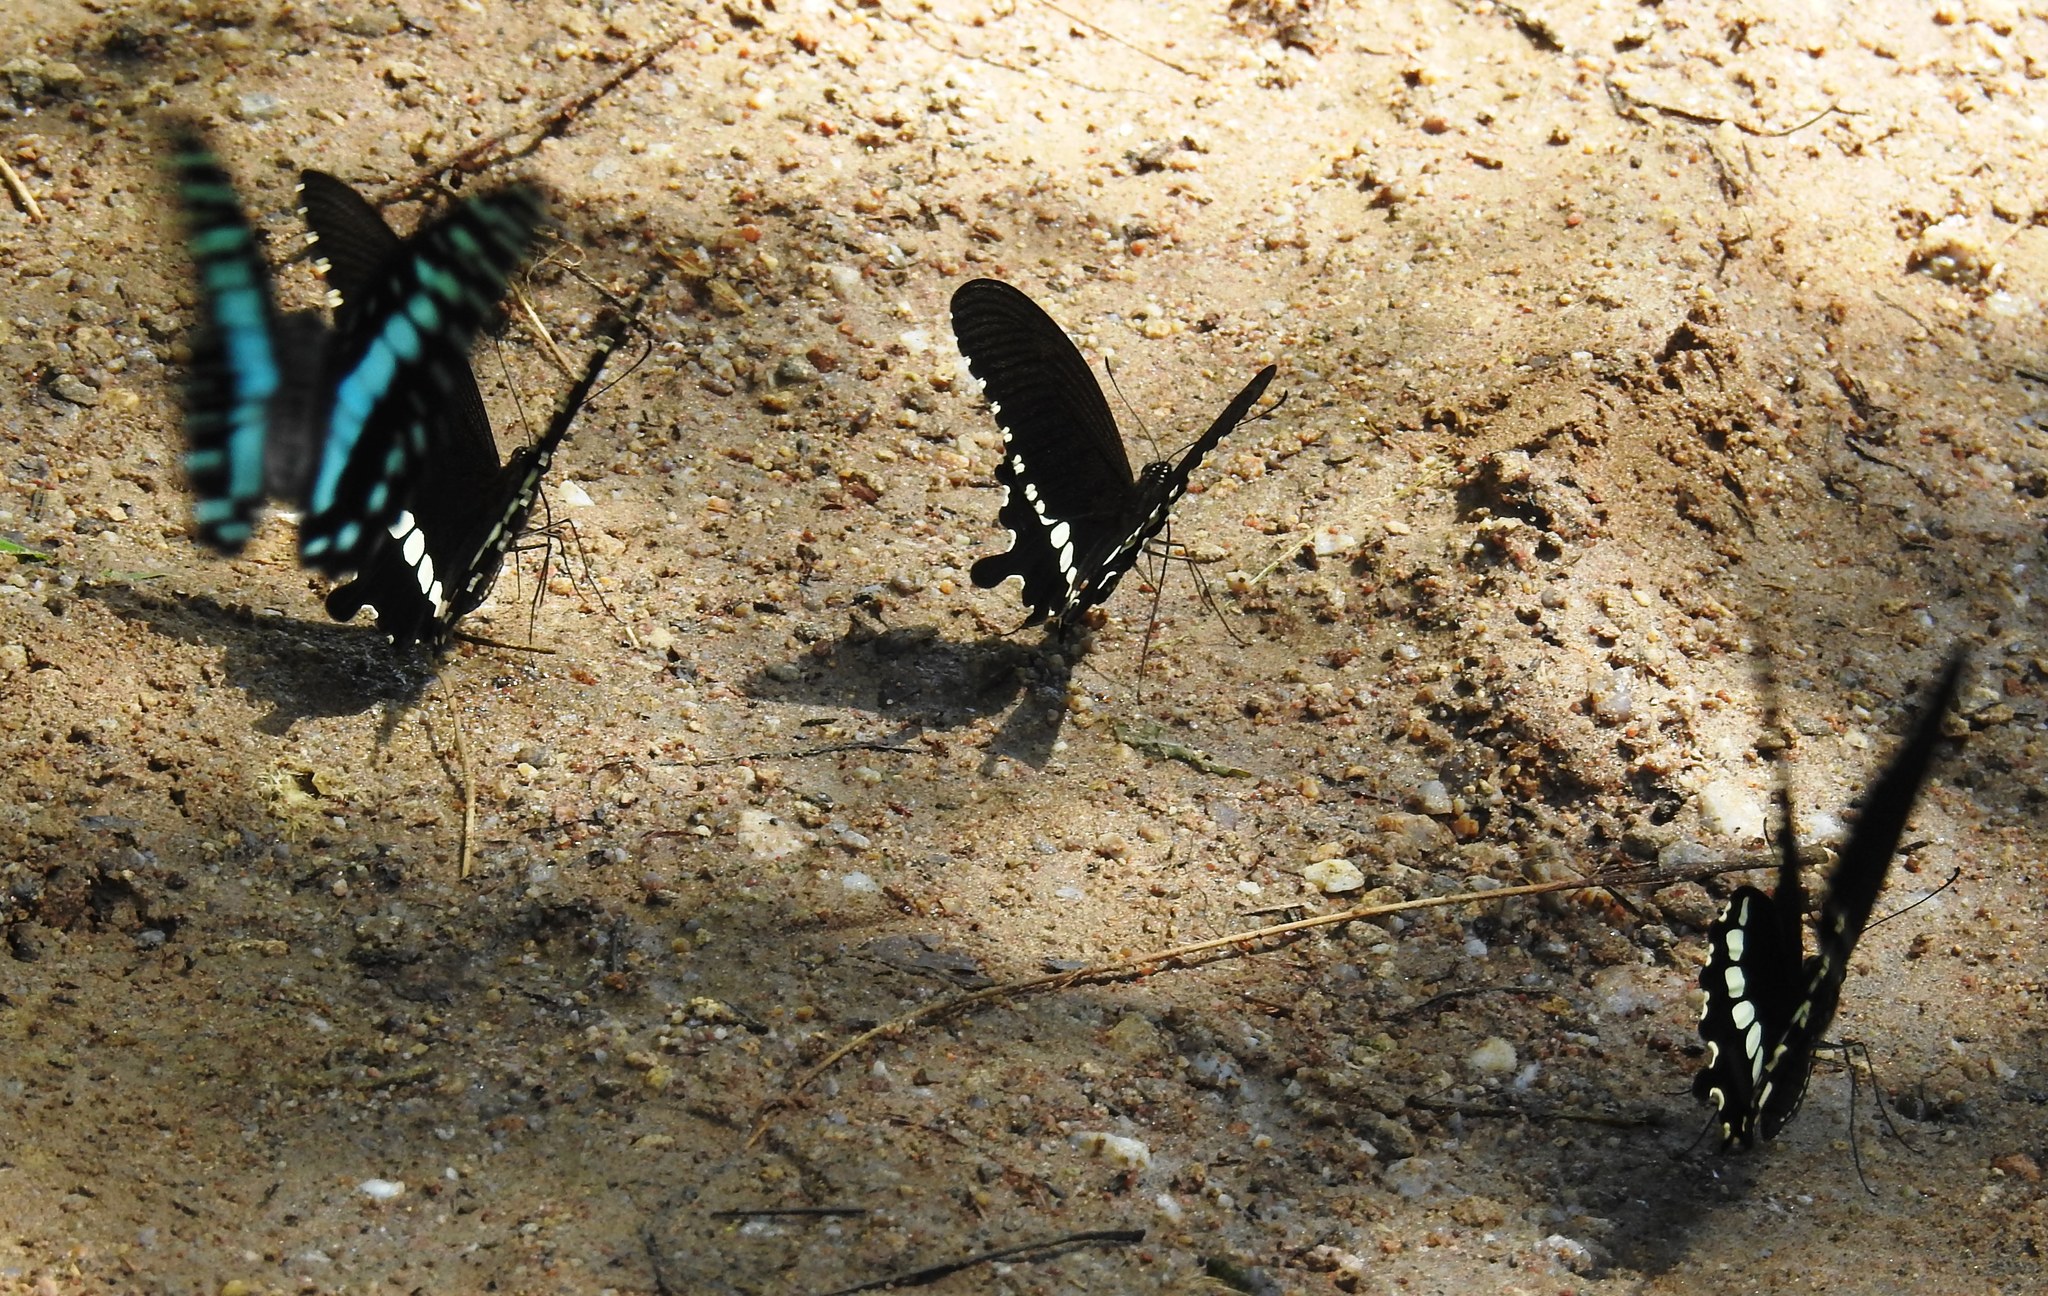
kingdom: Animalia
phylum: Arthropoda
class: Insecta
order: Lepidoptera
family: Papilionidae
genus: Papilio
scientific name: Papilio polytes
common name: Common mormon
